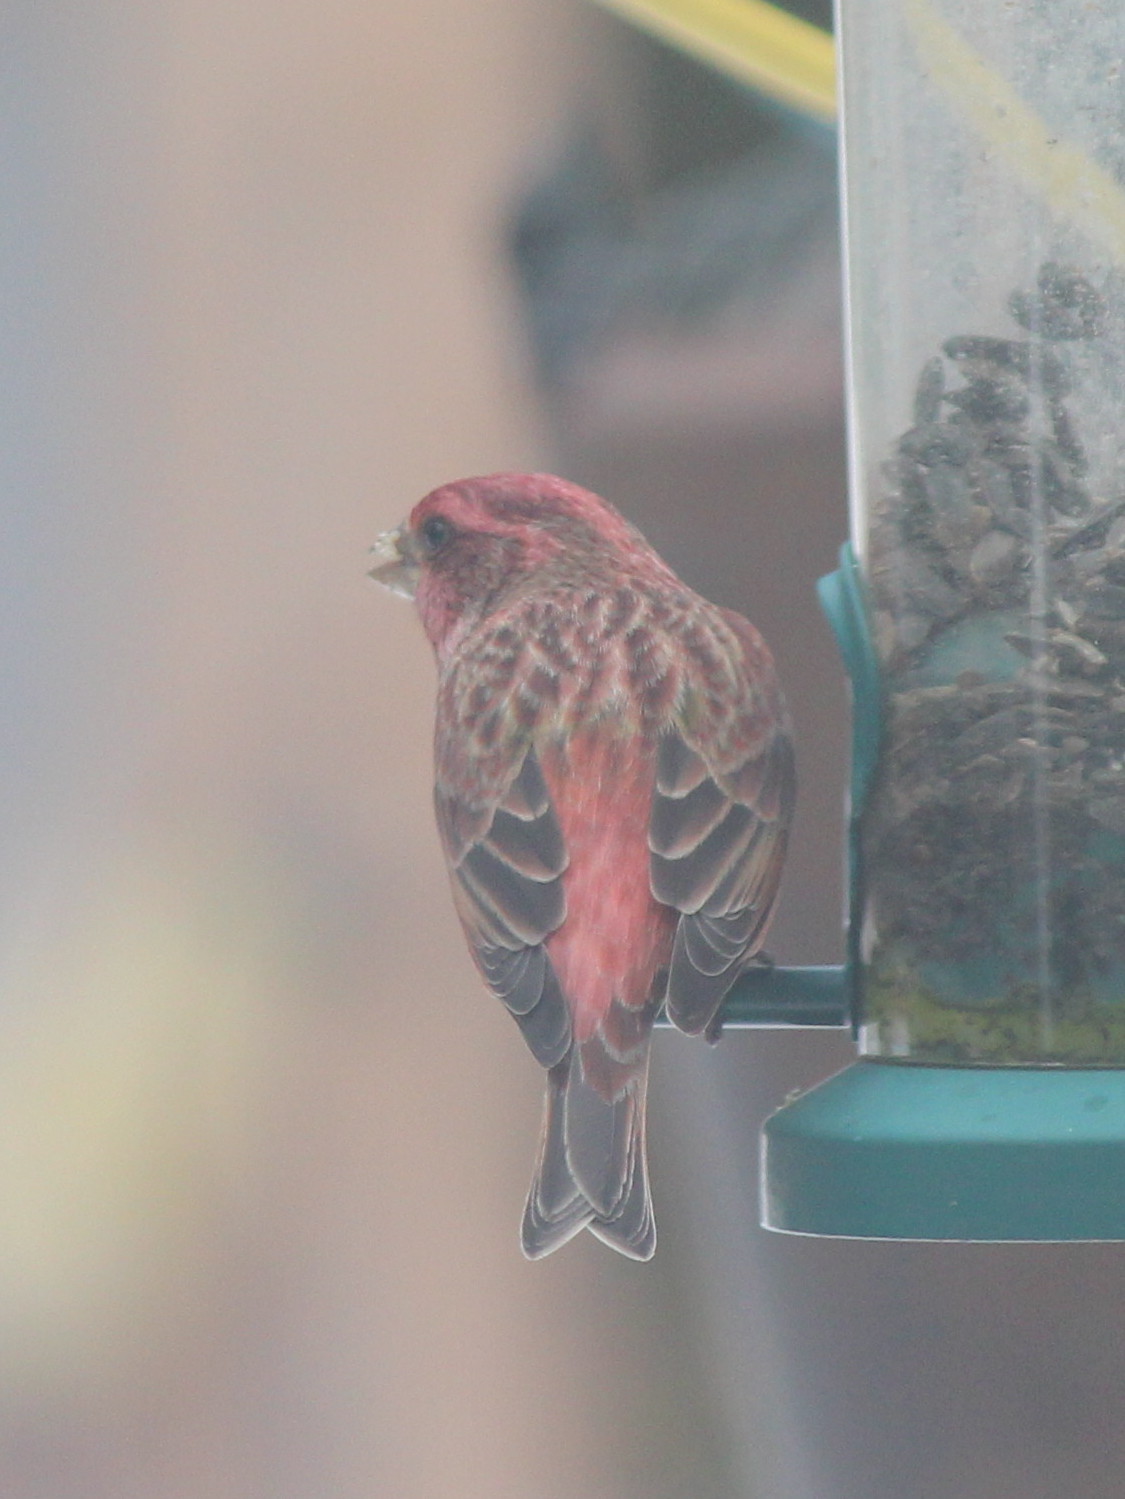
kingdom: Animalia
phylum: Chordata
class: Aves
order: Passeriformes
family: Fringillidae
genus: Haemorhous
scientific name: Haemorhous purpureus
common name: Purple finch
